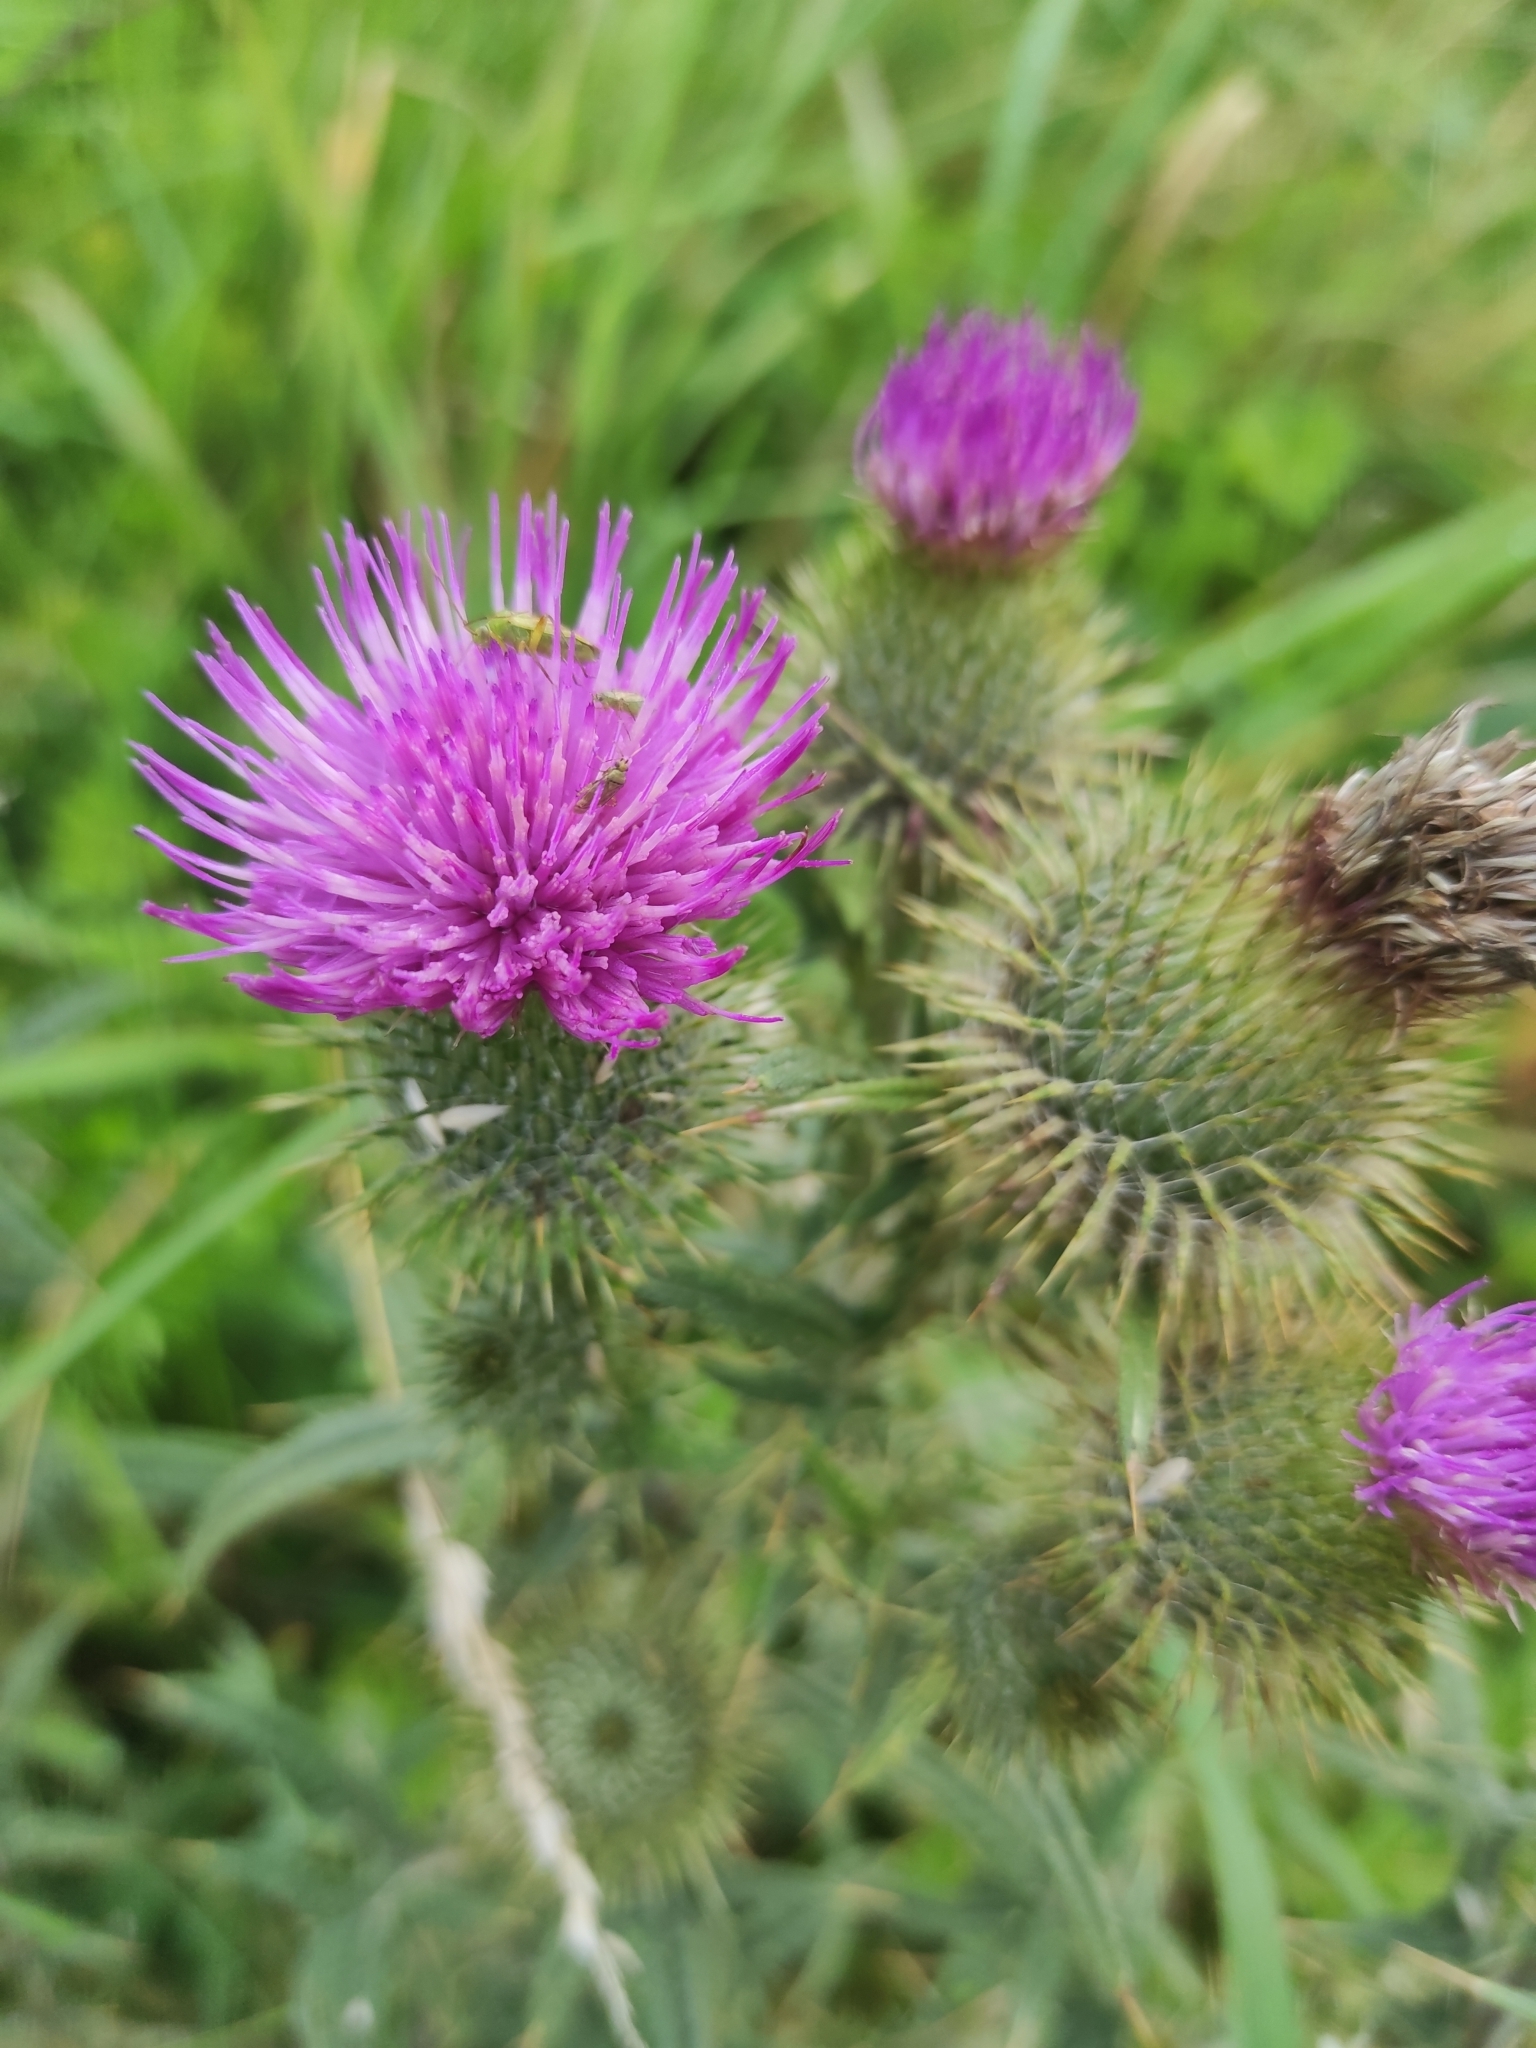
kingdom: Plantae
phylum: Tracheophyta
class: Magnoliopsida
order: Asterales
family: Asteraceae
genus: Cirsium
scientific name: Cirsium vulgare
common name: Bull thistle
